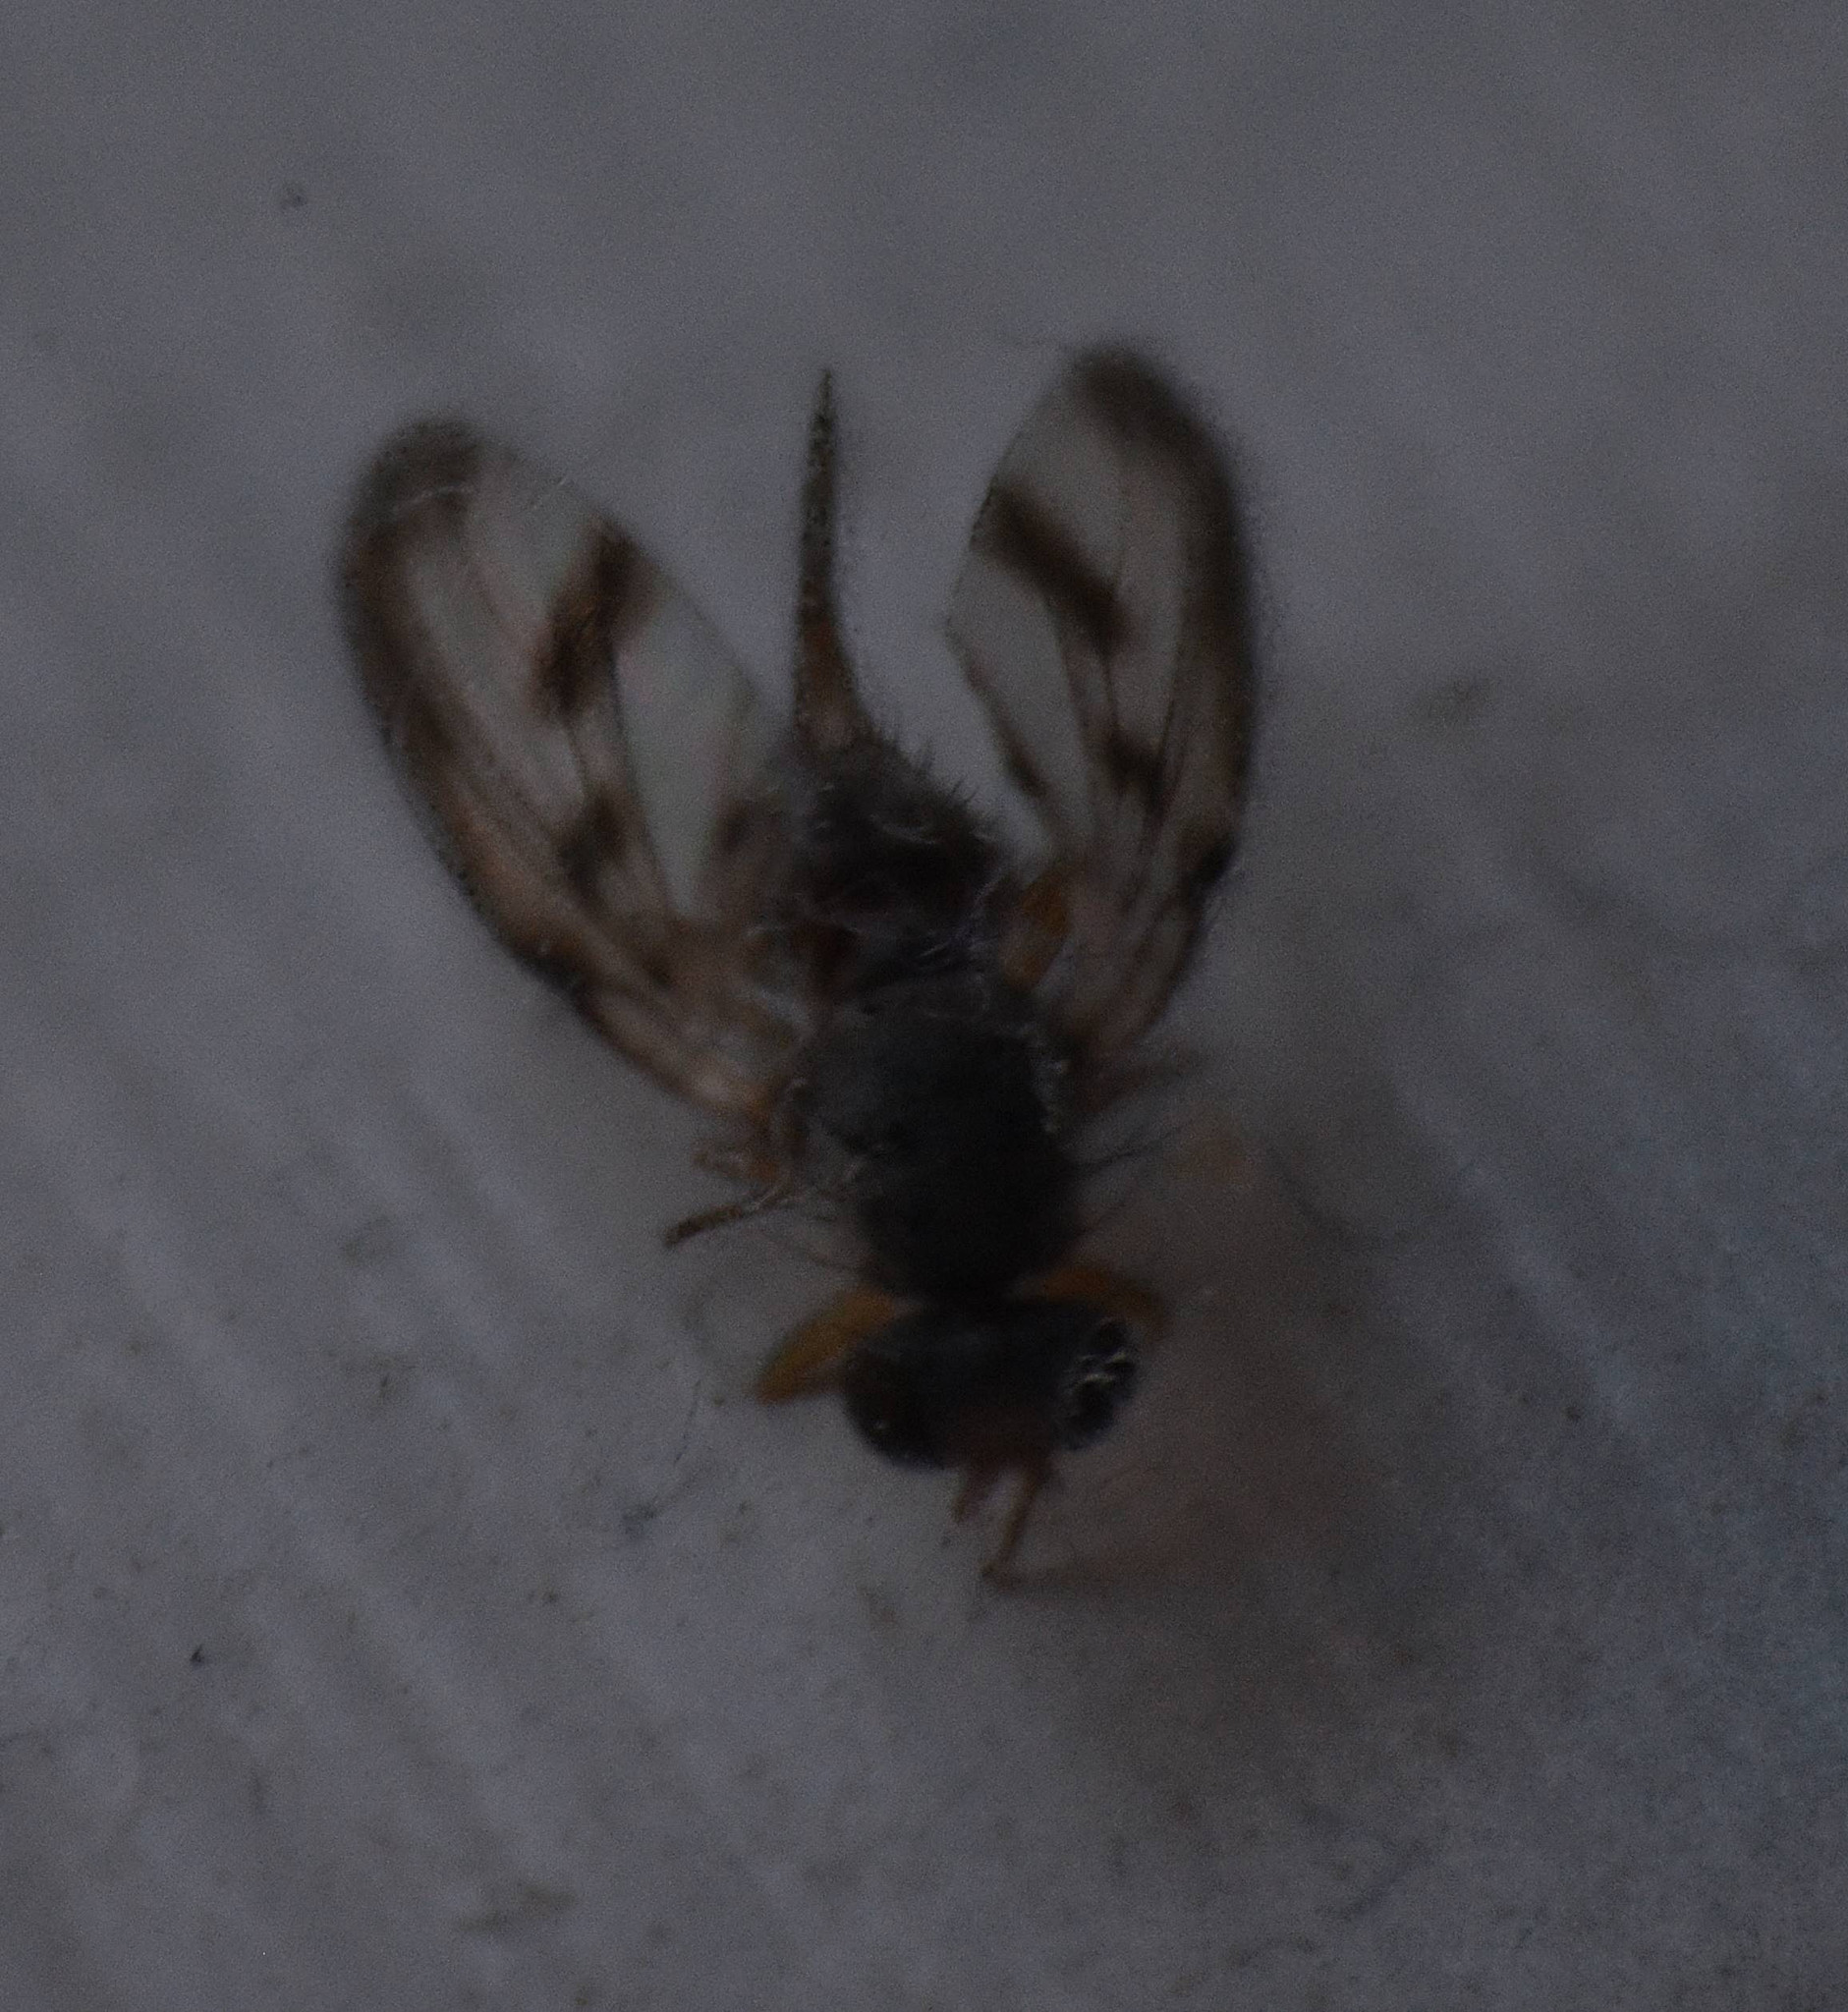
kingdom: Animalia
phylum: Arthropoda
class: Insecta
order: Diptera
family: Pallopteridae
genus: Palloptera
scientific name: Palloptera umbellatarum
